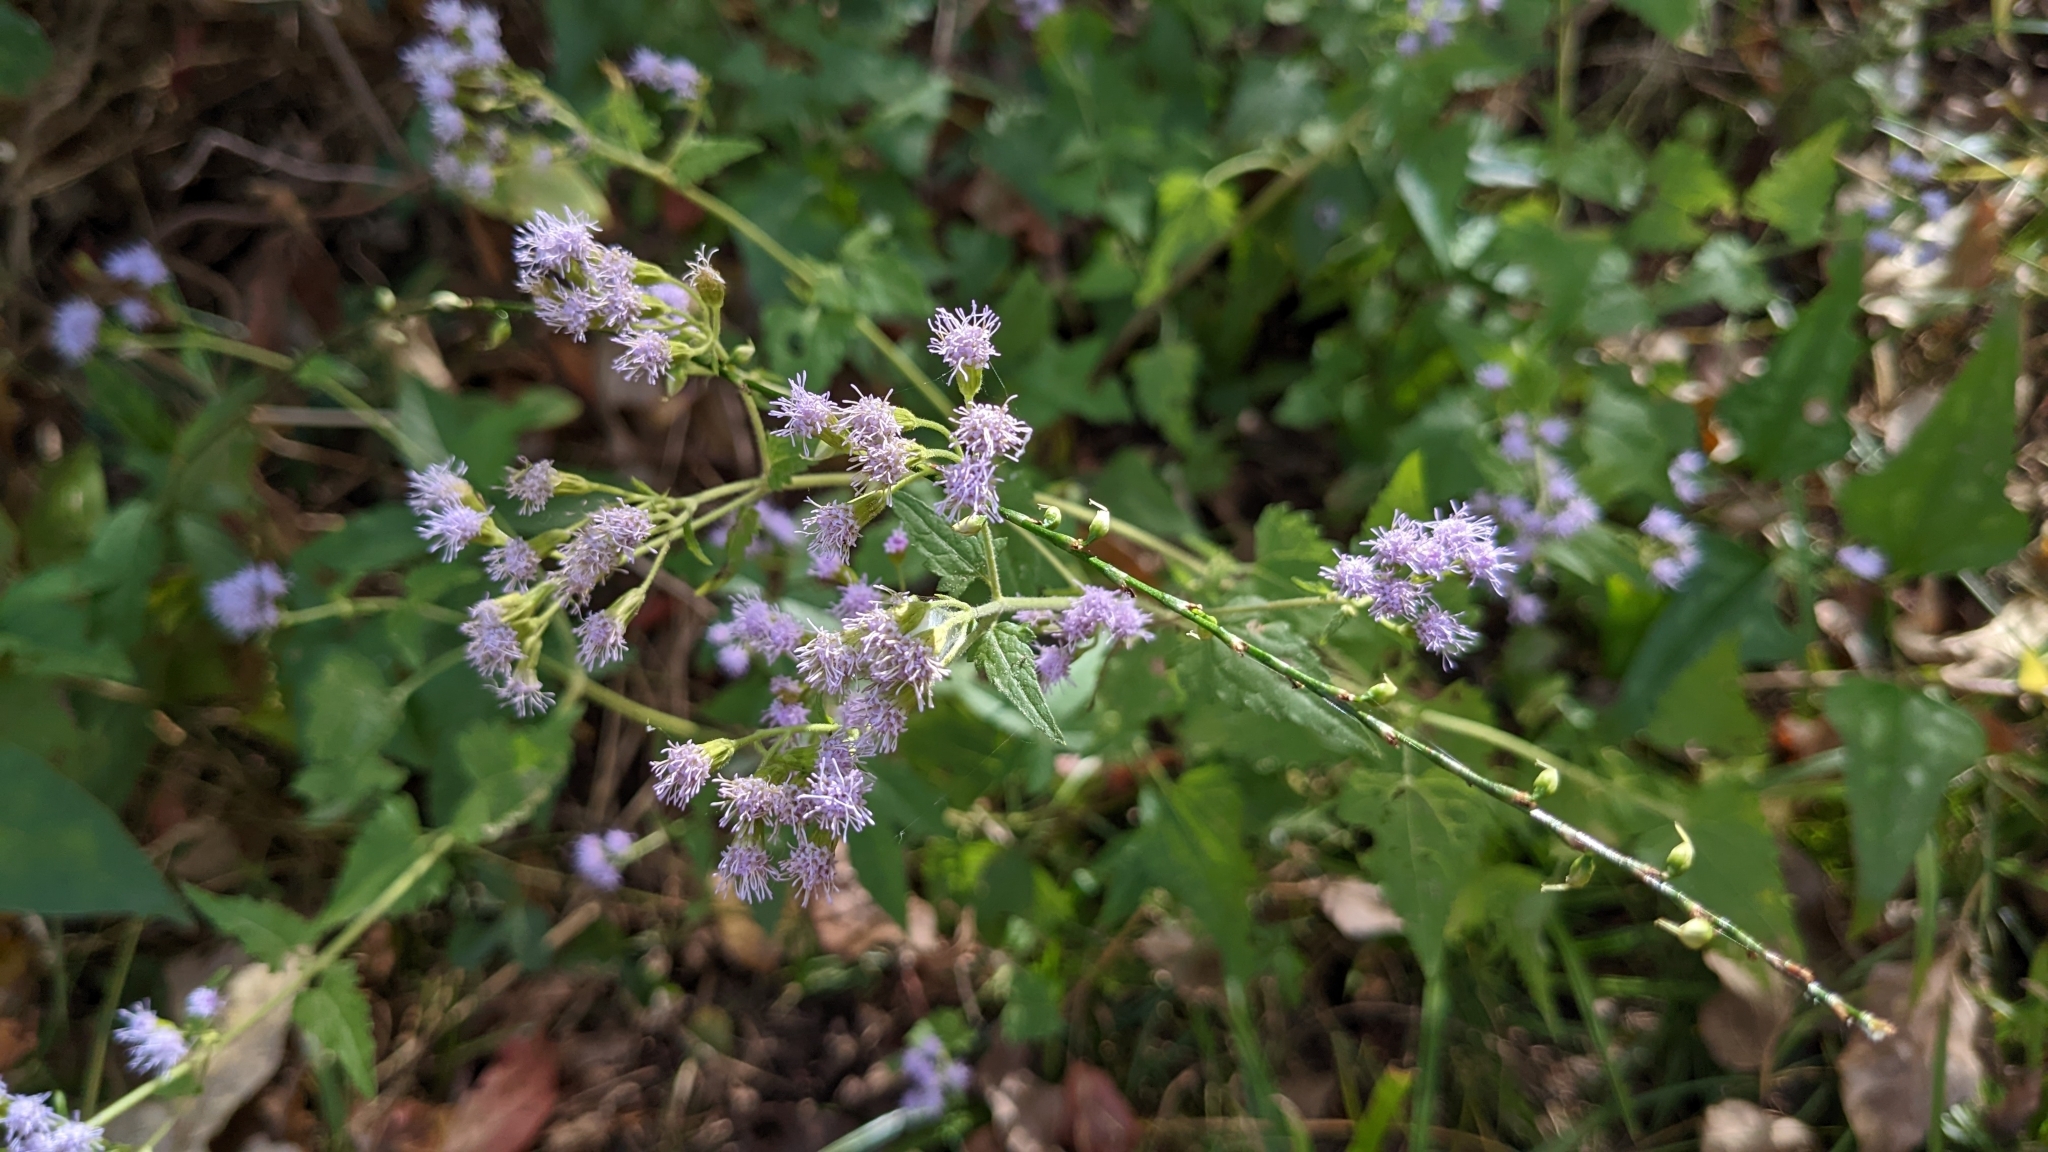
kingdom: Plantae
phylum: Tracheophyta
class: Magnoliopsida
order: Asterales
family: Asteraceae
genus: Fleischmannia
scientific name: Fleischmannia incarnata
